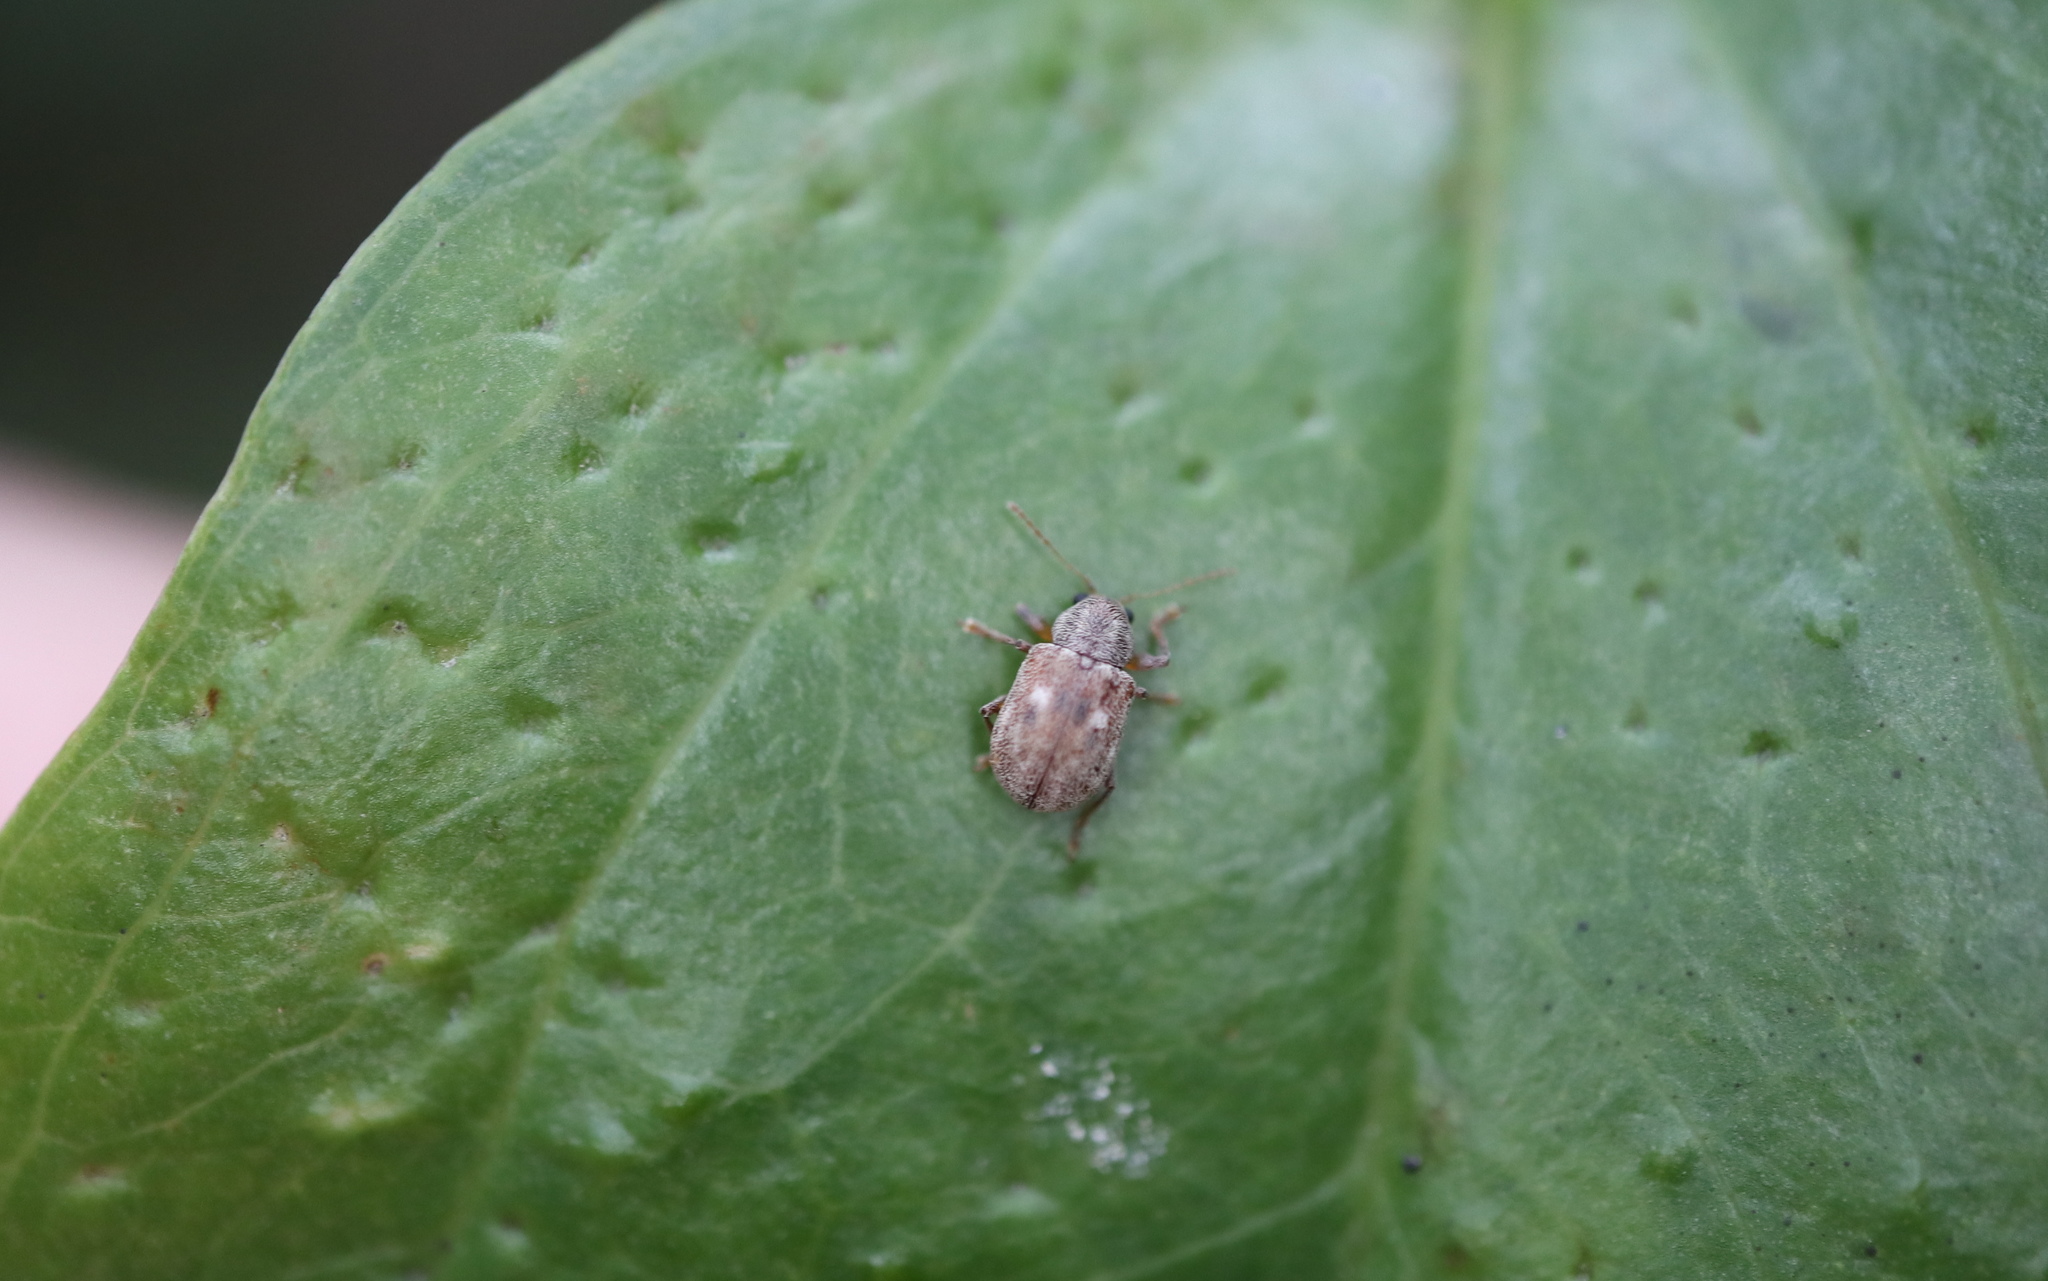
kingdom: Animalia
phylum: Arthropoda
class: Insecta
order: Coleoptera
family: Chrysomelidae
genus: Demotina
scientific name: Demotina modesta
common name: Leaf beetle
